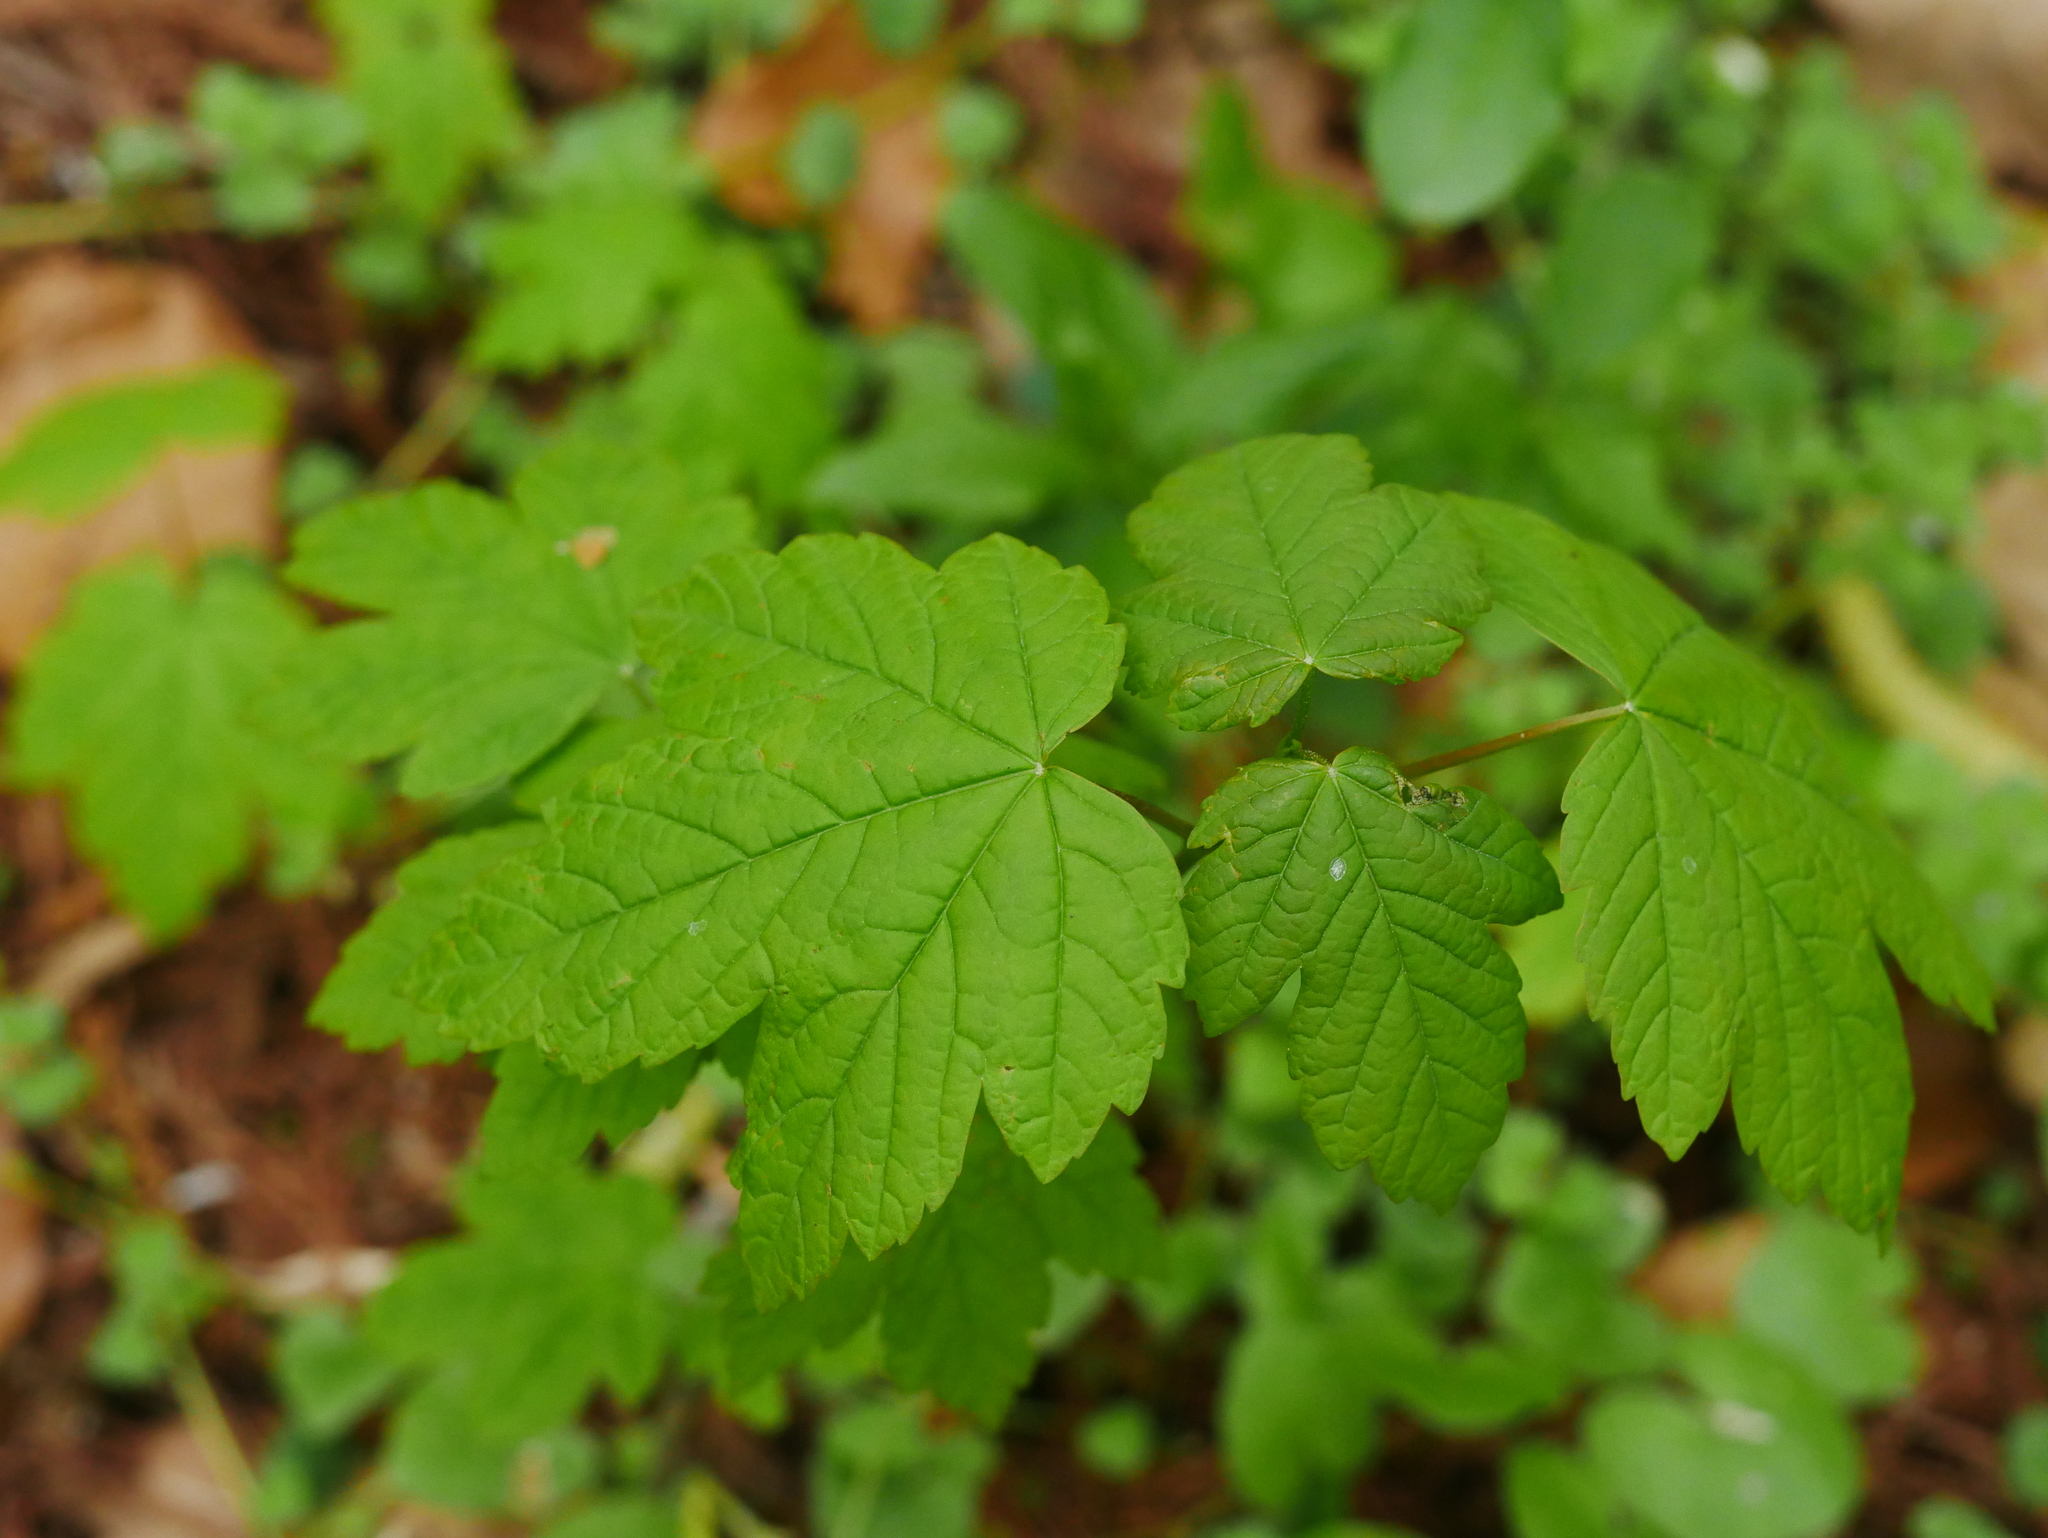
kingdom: Plantae
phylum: Tracheophyta
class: Magnoliopsida
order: Sapindales
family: Sapindaceae
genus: Acer
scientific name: Acer pseudoplatanus
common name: Sycamore
